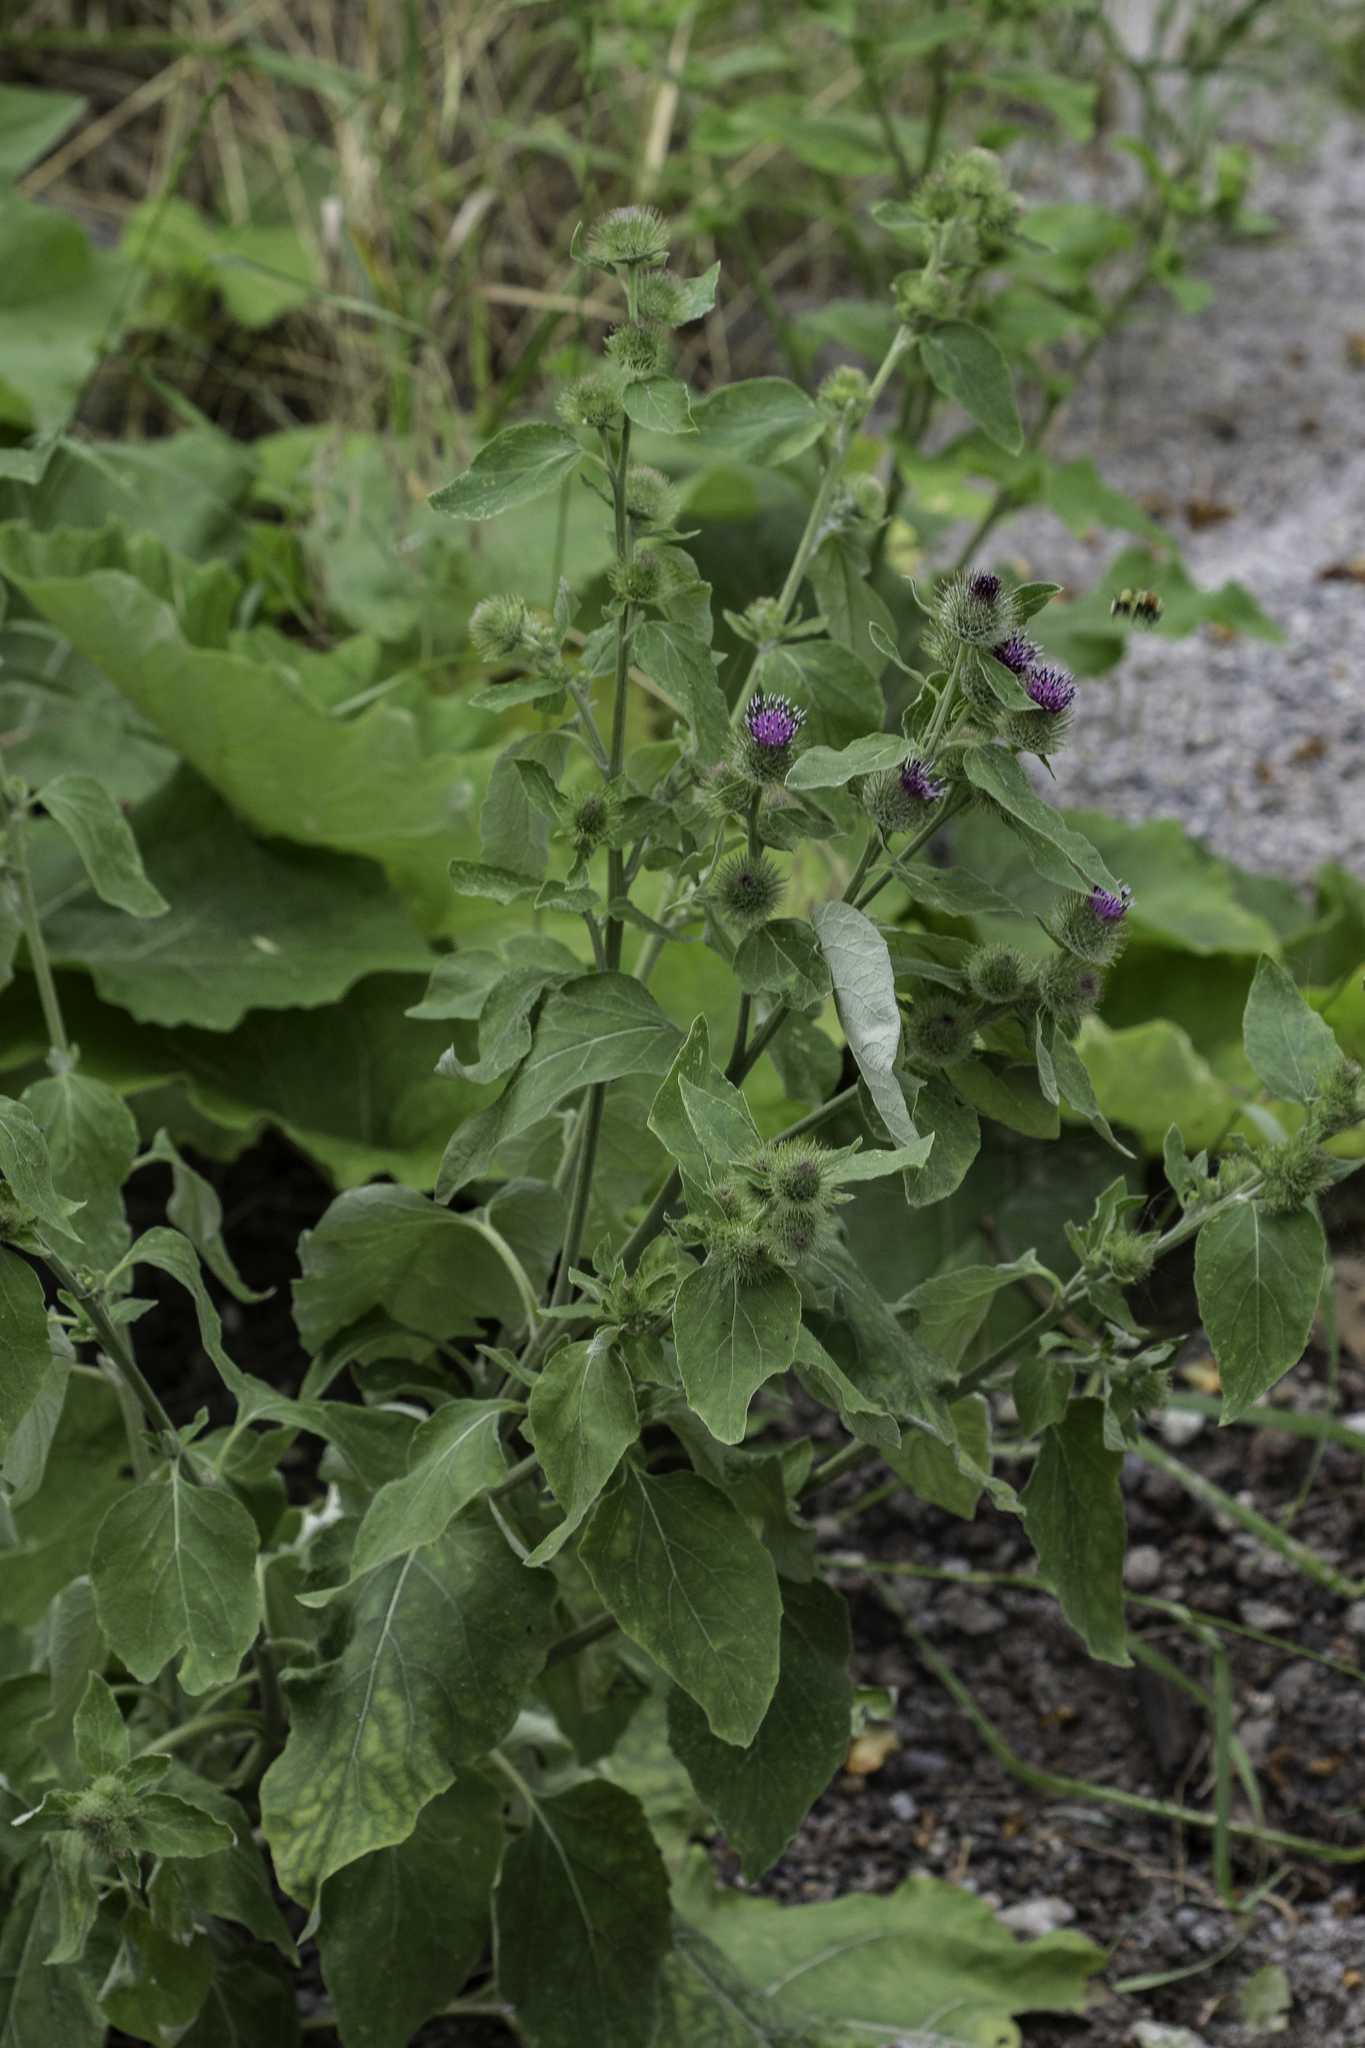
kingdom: Plantae
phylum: Tracheophyta
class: Magnoliopsida
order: Asterales
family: Asteraceae
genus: Arctium
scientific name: Arctium minus
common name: Lesser burdock
